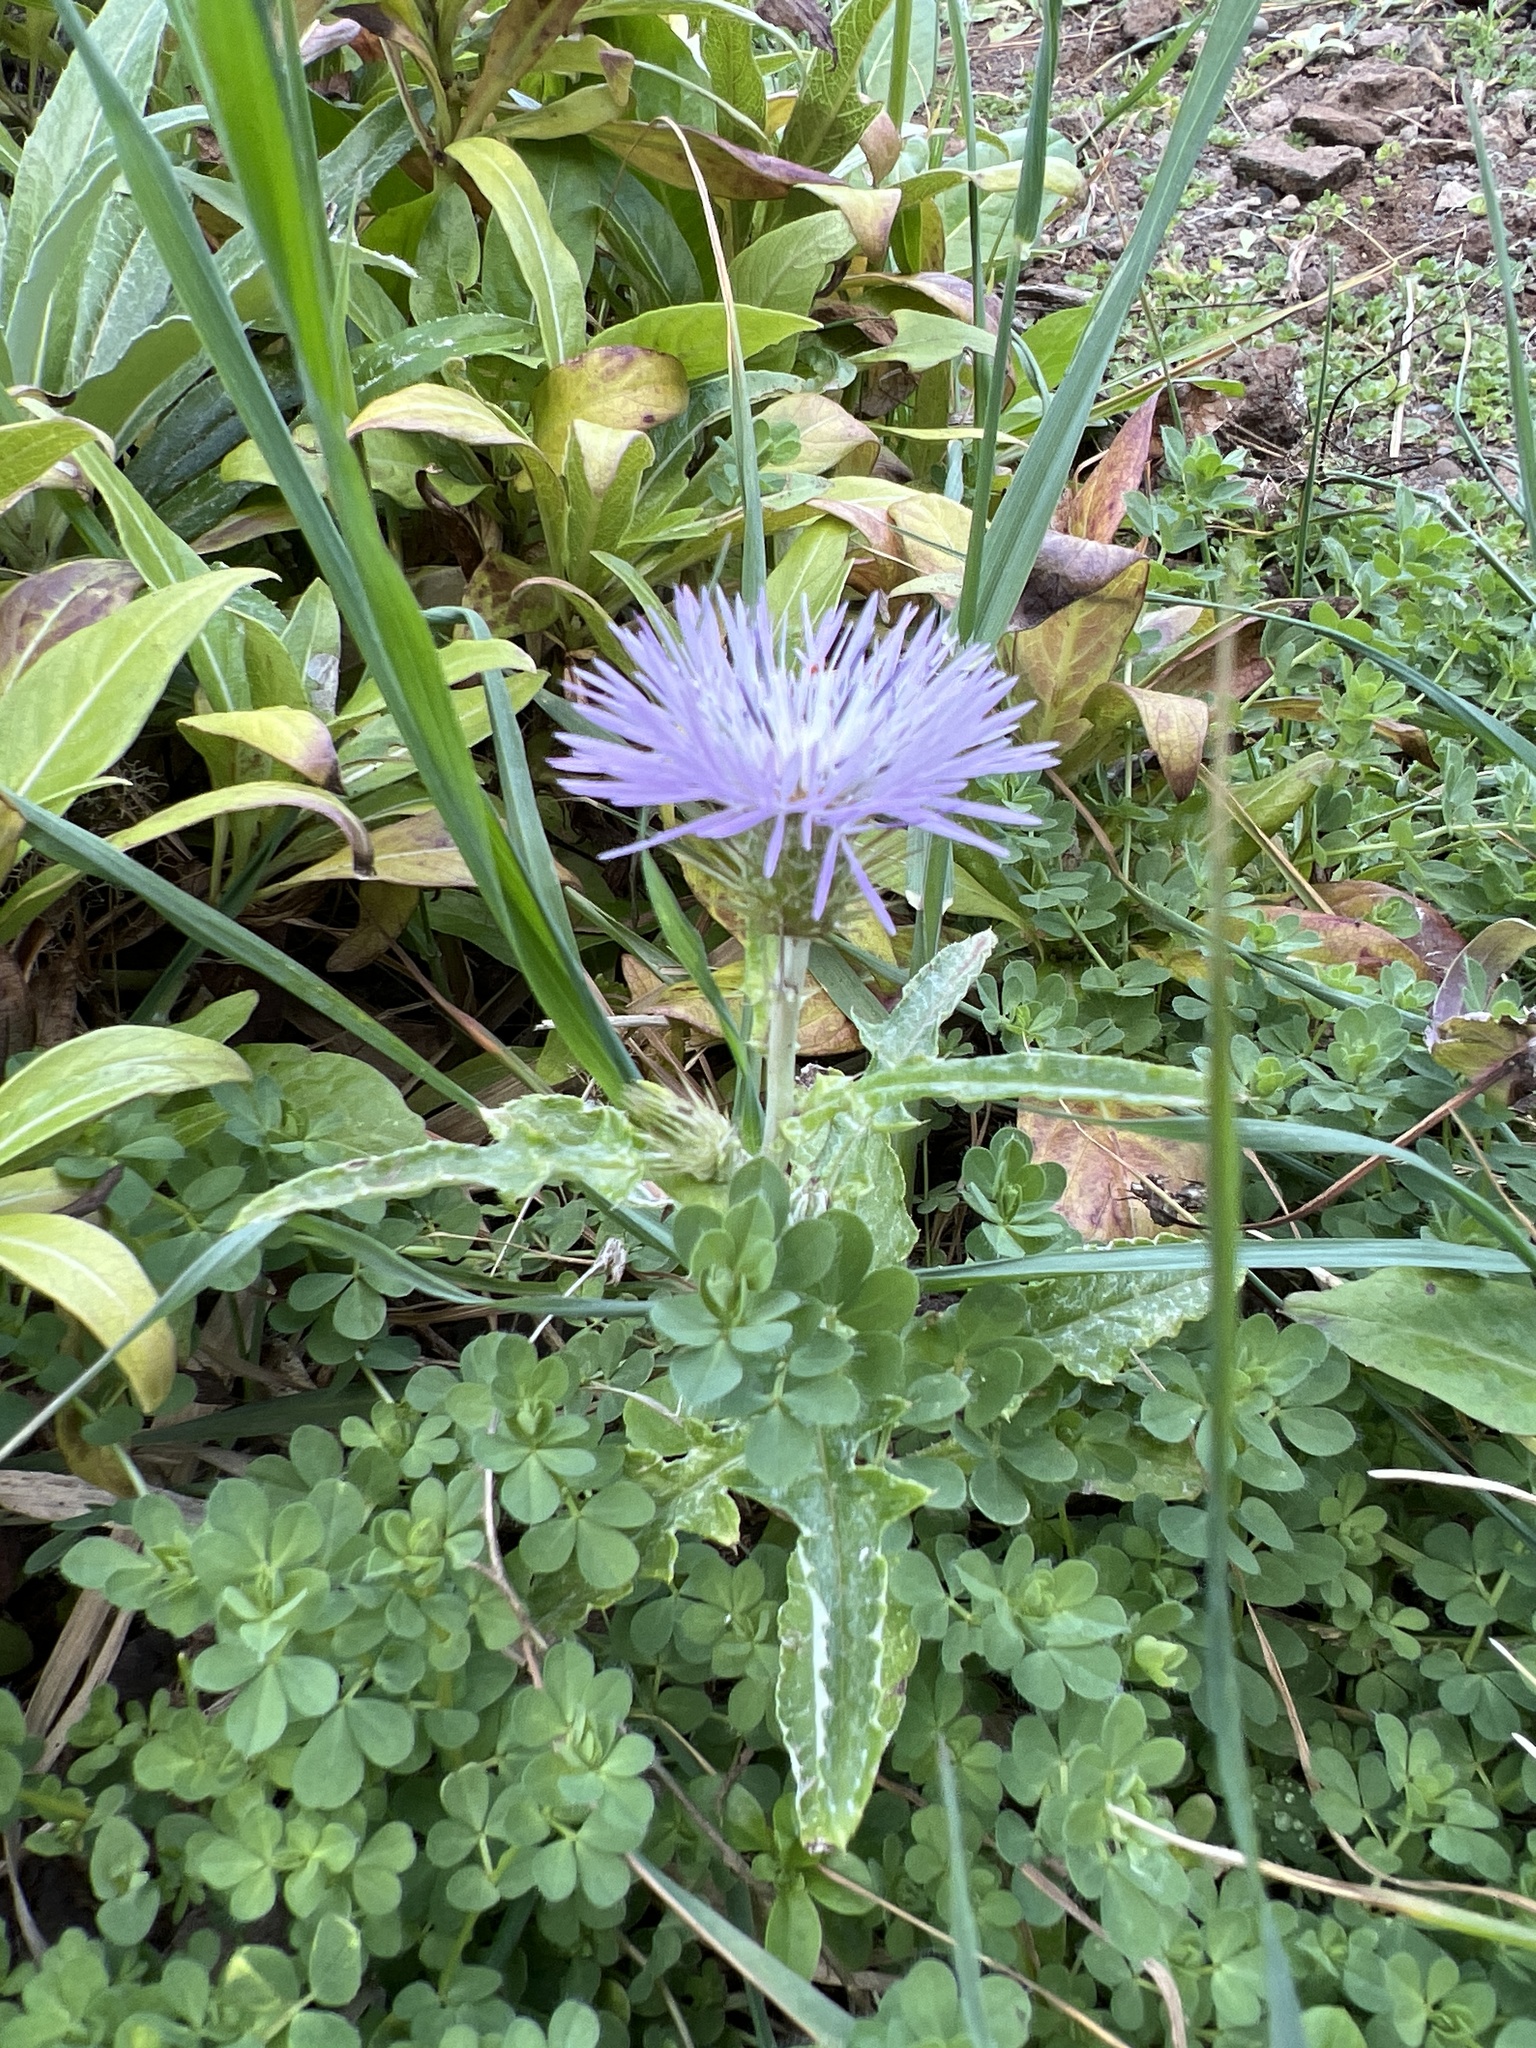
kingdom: Plantae
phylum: Tracheophyta
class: Magnoliopsida
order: Asterales
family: Asteraceae
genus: Galactites
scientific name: Galactites tomentosa
